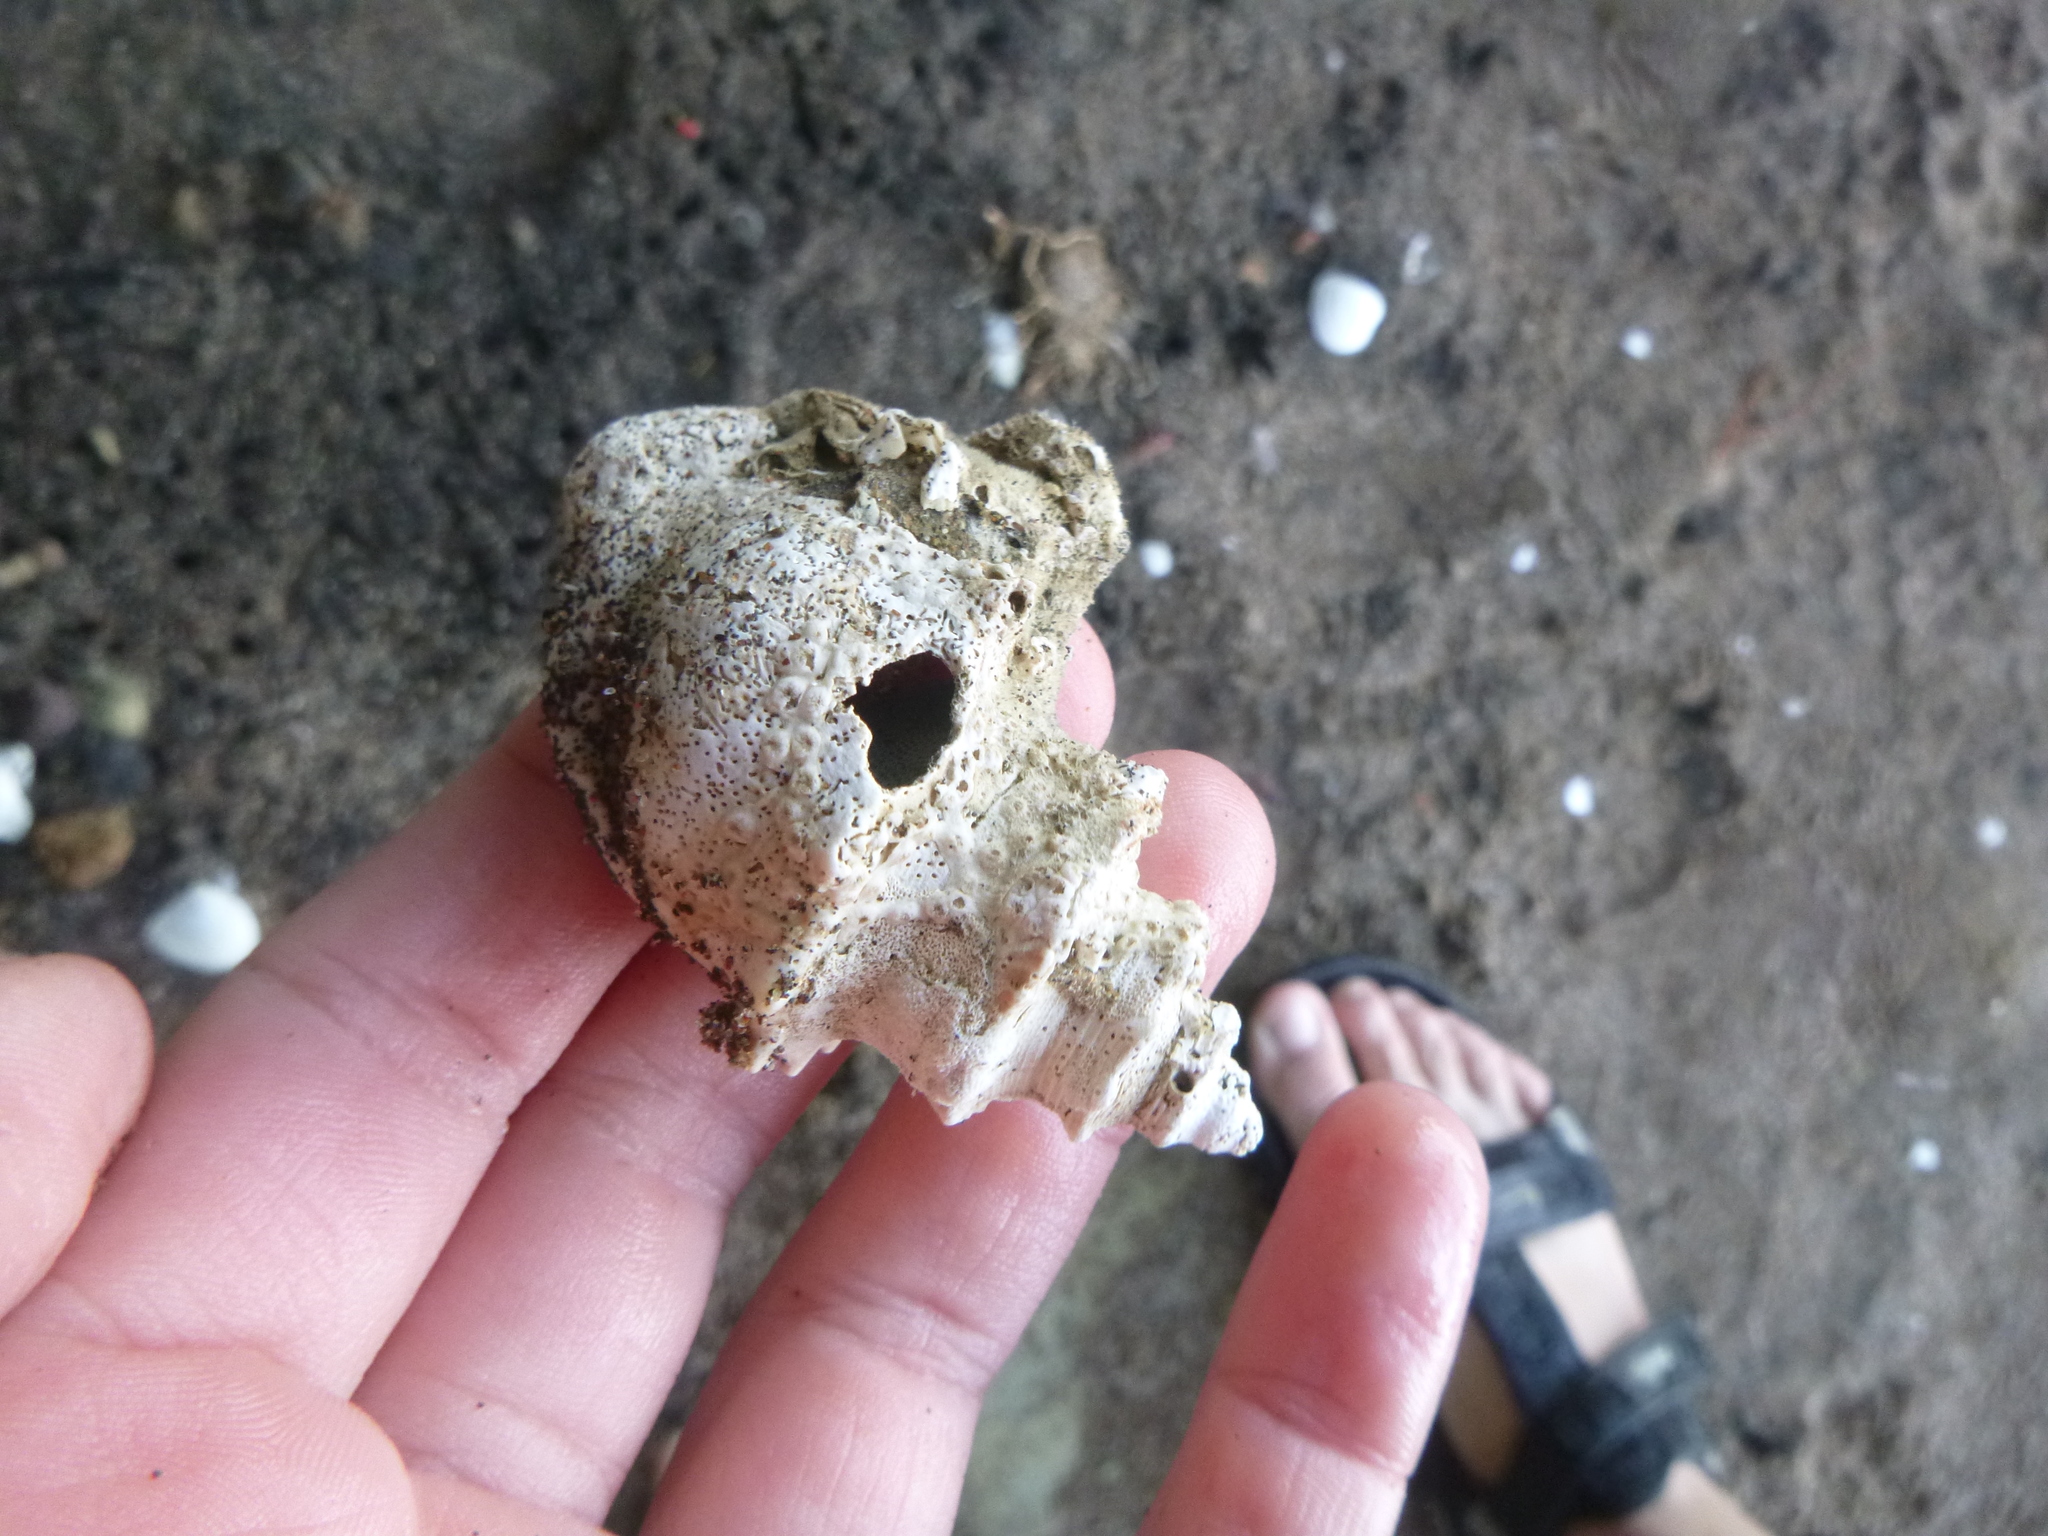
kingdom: Animalia
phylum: Mollusca
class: Gastropoda
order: Littorinimorpha
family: Struthiolariidae
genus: Struthiolaria
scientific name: Struthiolaria papulosa
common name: Large ostrich foot
